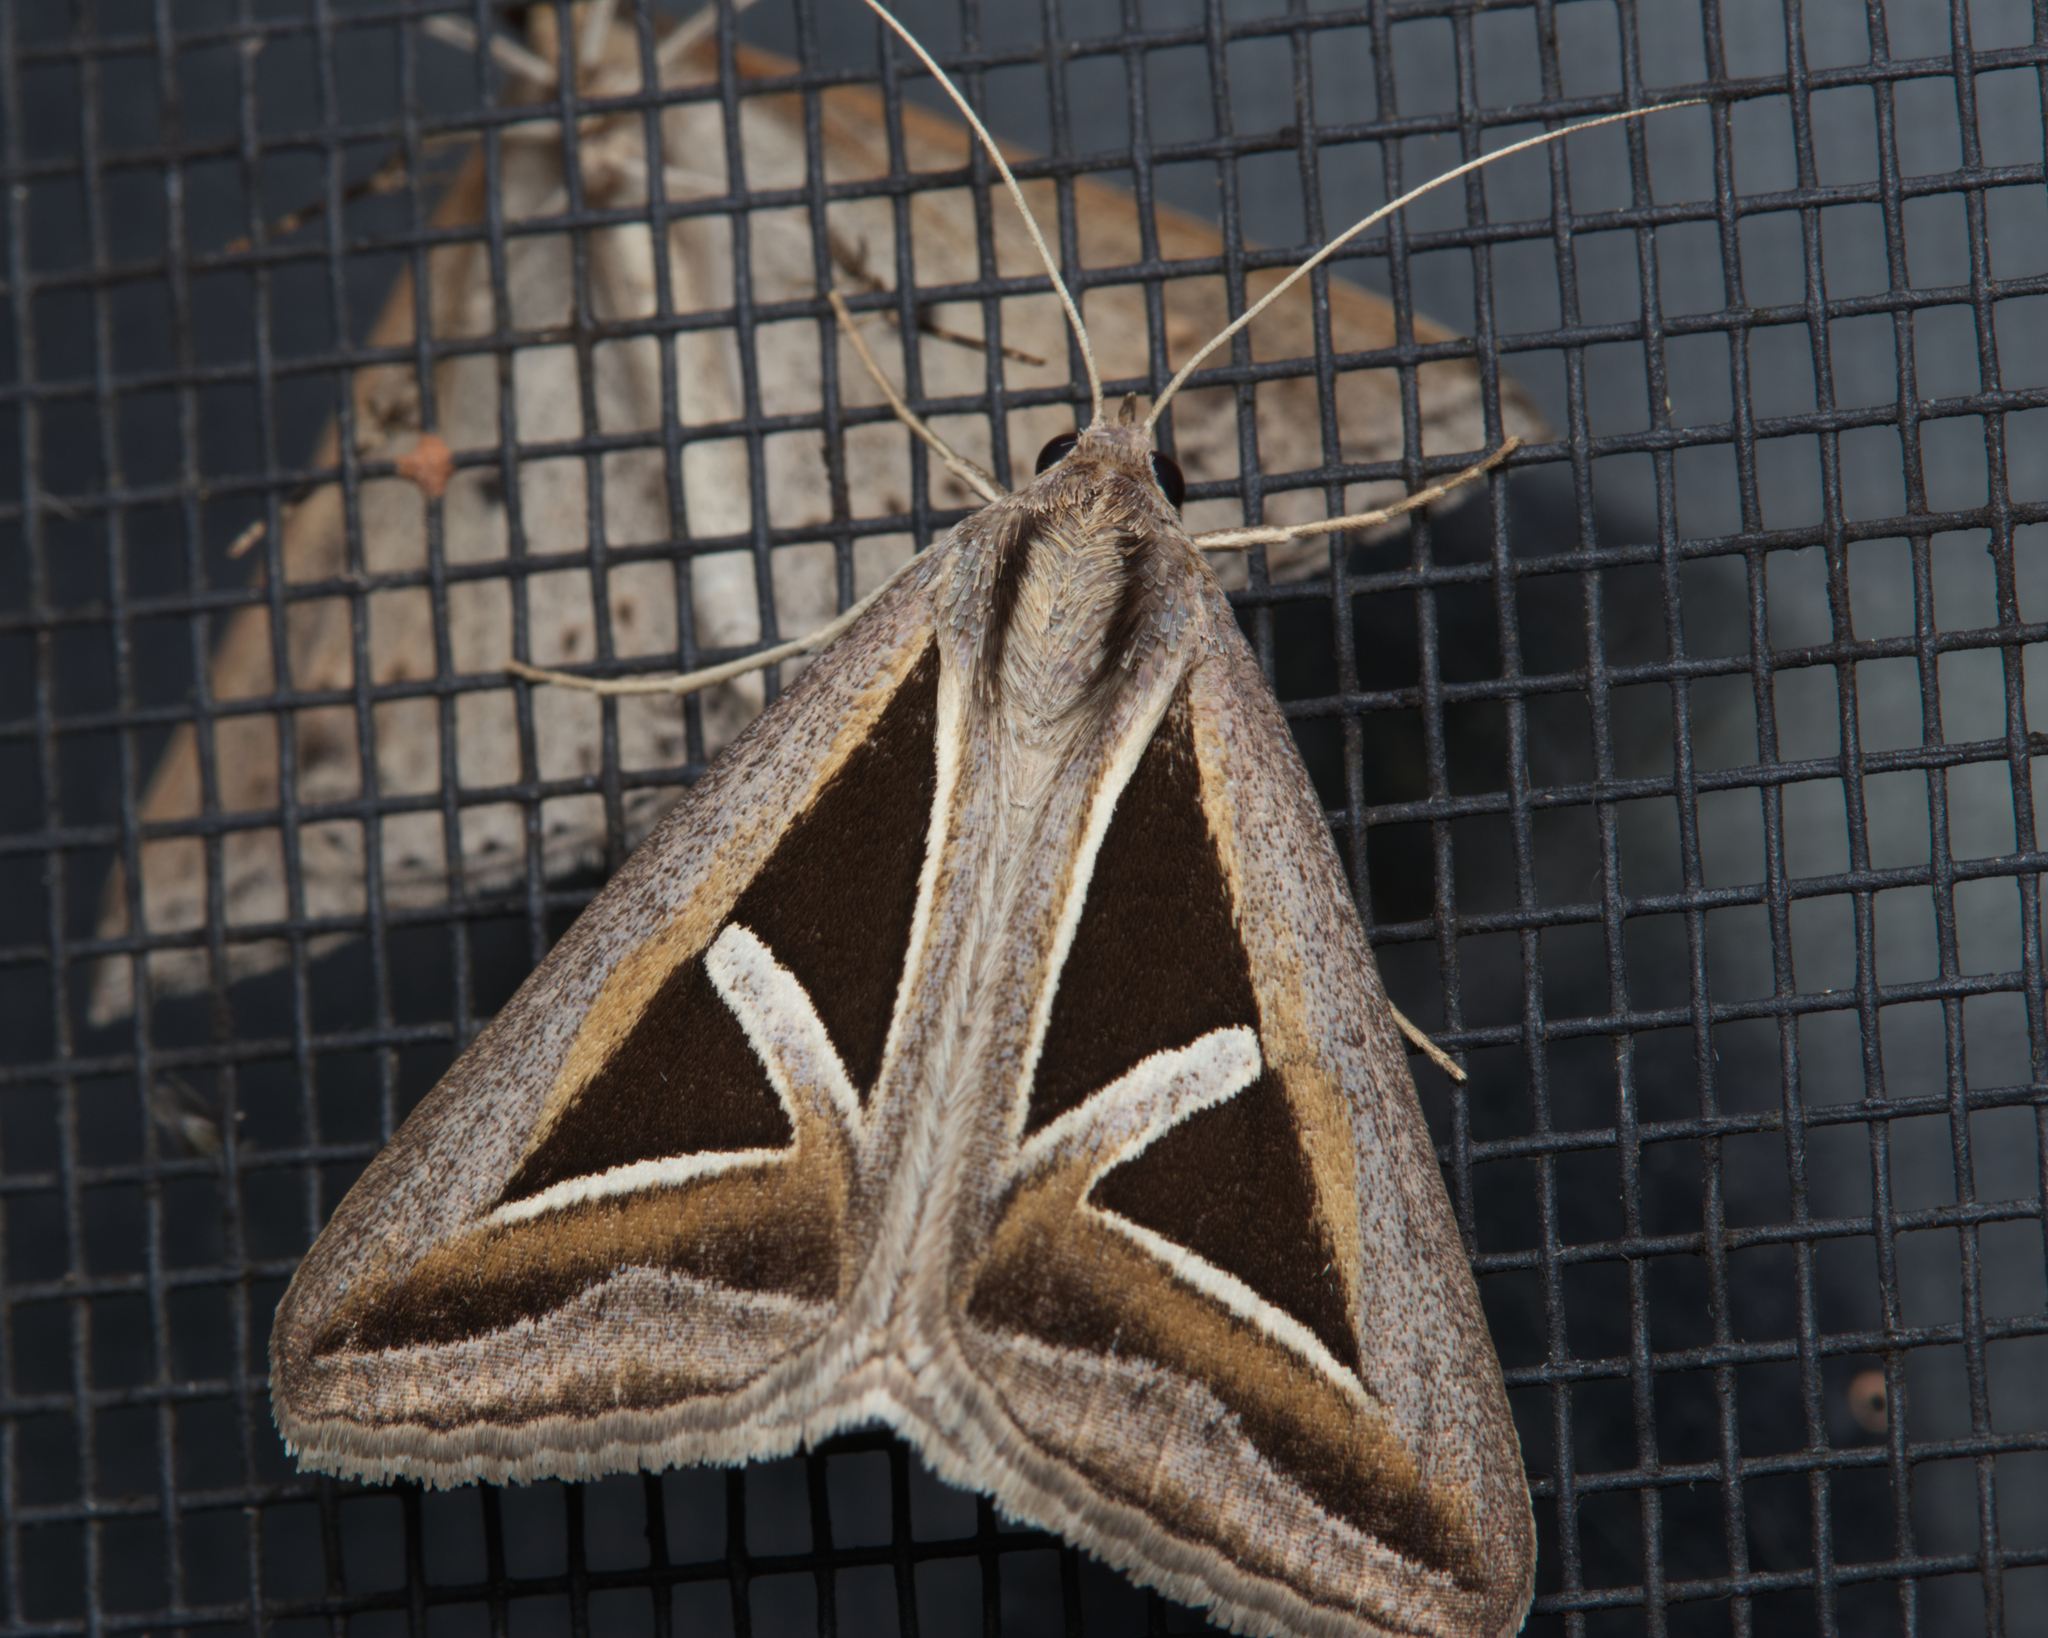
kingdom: Animalia
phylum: Arthropoda
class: Insecta
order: Lepidoptera
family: Erebidae
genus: Trigonodes
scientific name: Trigonodes hyppasia
